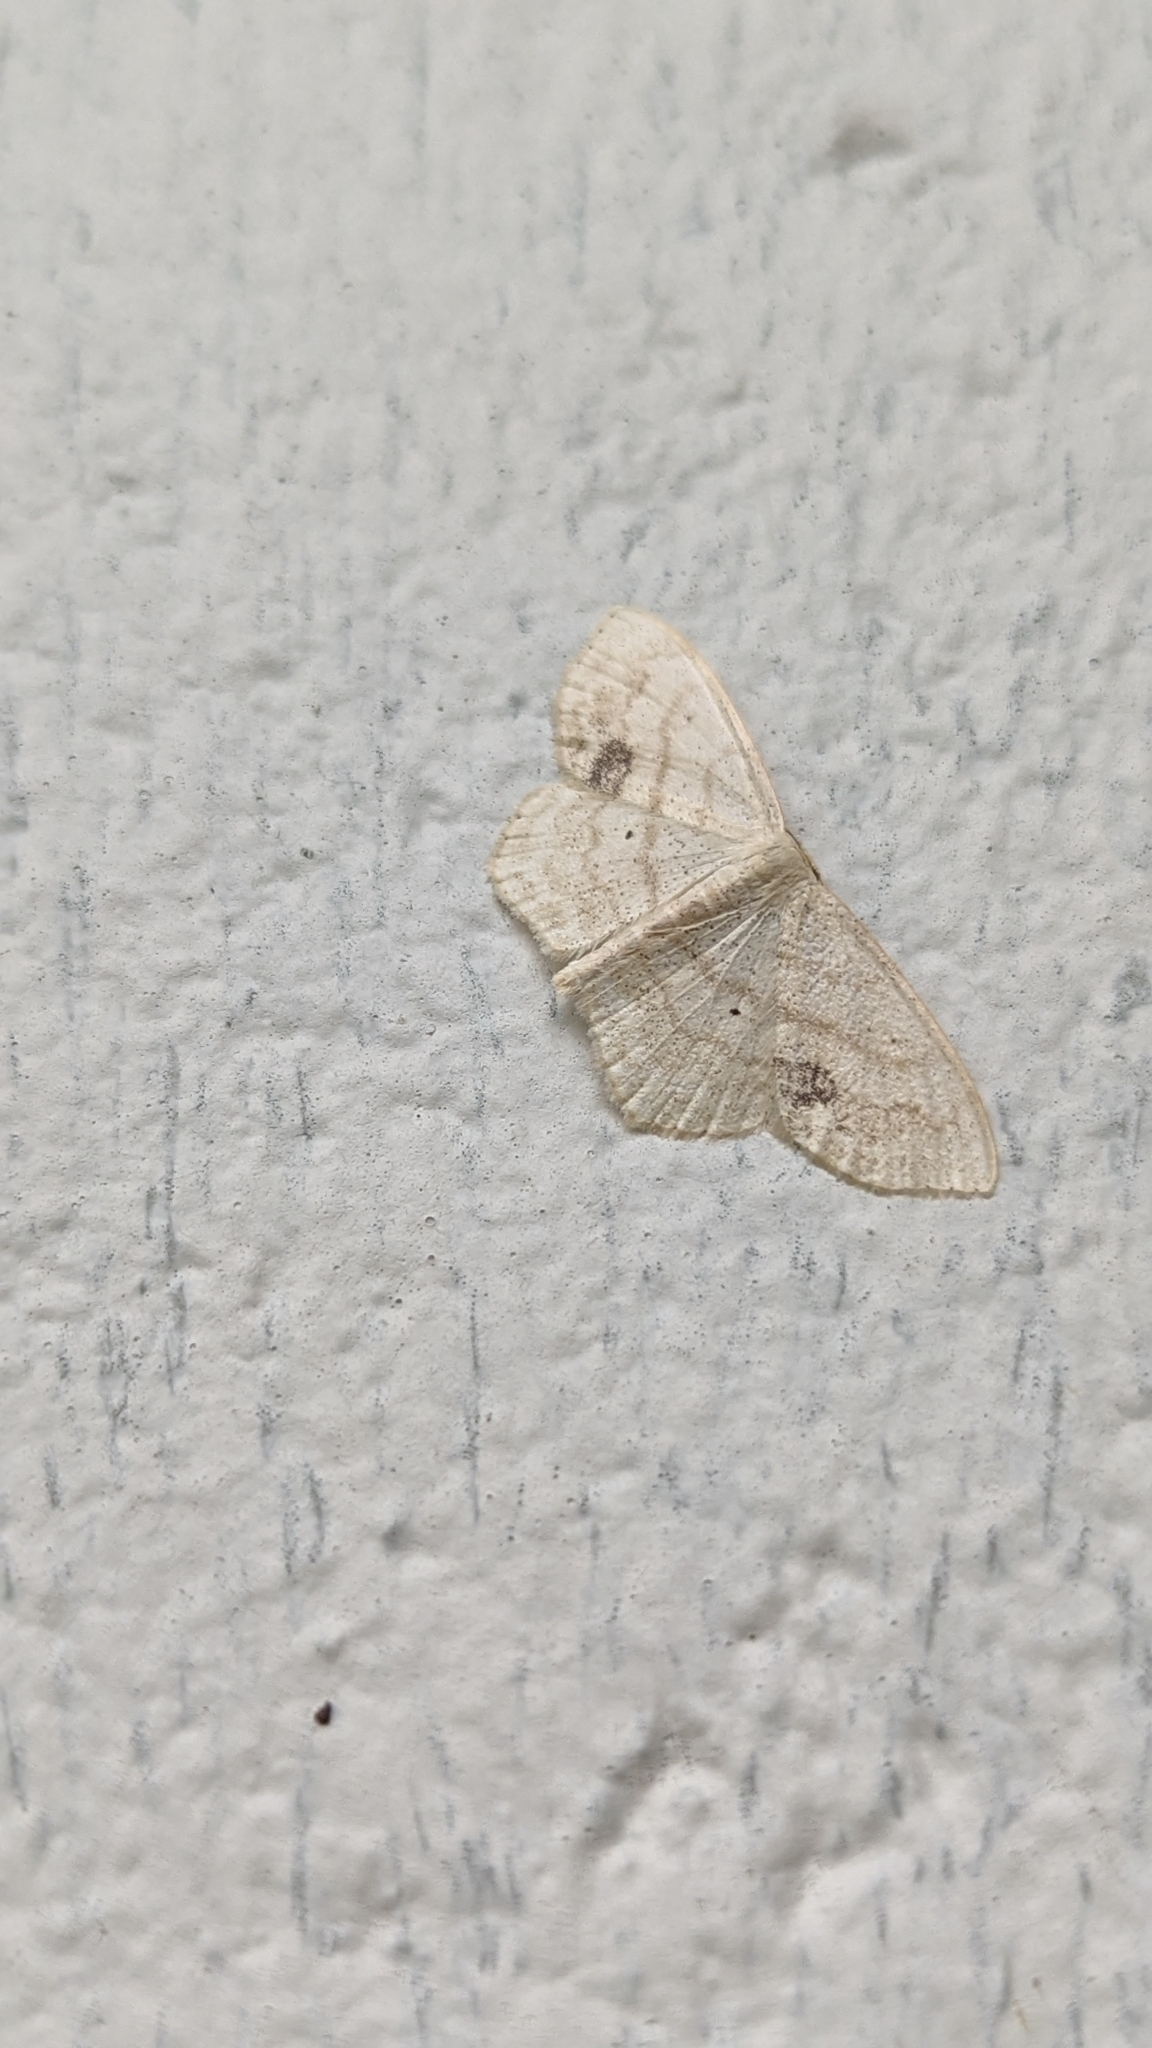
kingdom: Animalia
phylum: Arthropoda
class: Insecta
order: Lepidoptera
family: Geometridae
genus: Scopula
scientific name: Scopula limboundata
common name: Large lace border
